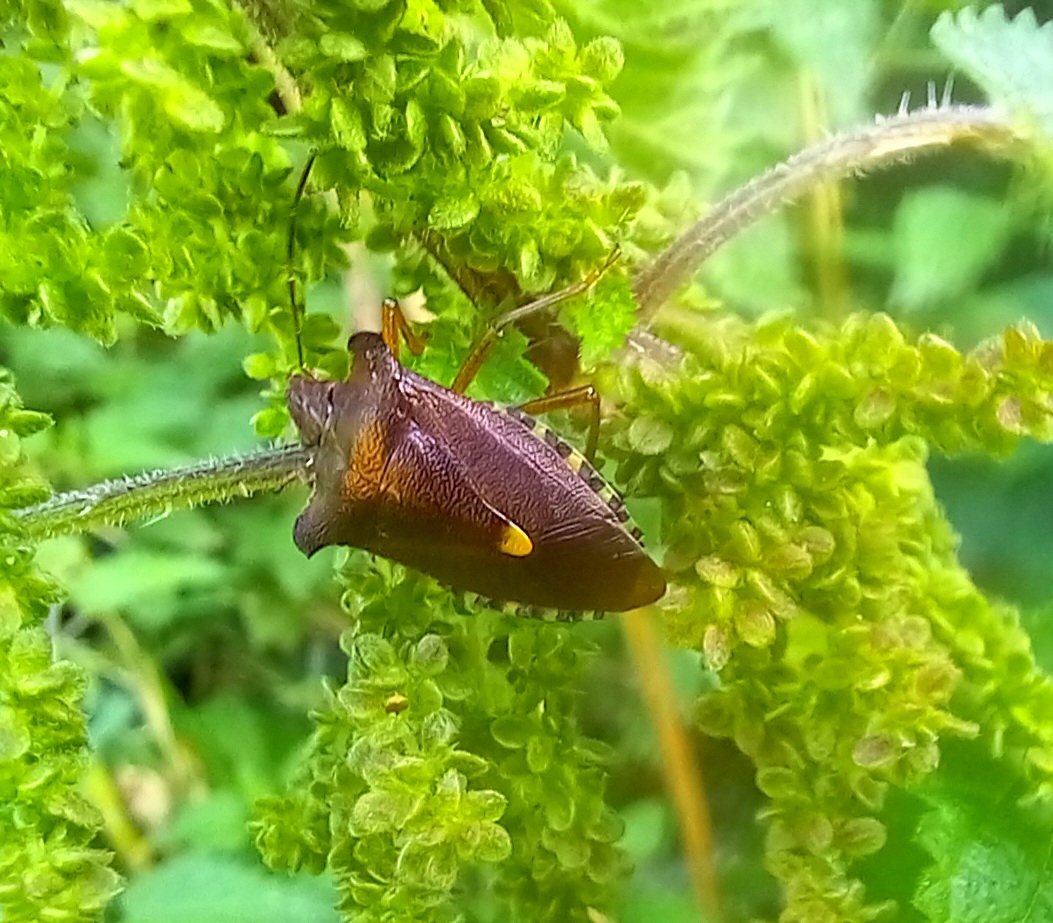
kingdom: Animalia
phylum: Arthropoda
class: Insecta
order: Hemiptera
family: Pentatomidae
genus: Pentatoma
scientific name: Pentatoma rufipes
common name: Forest bug
